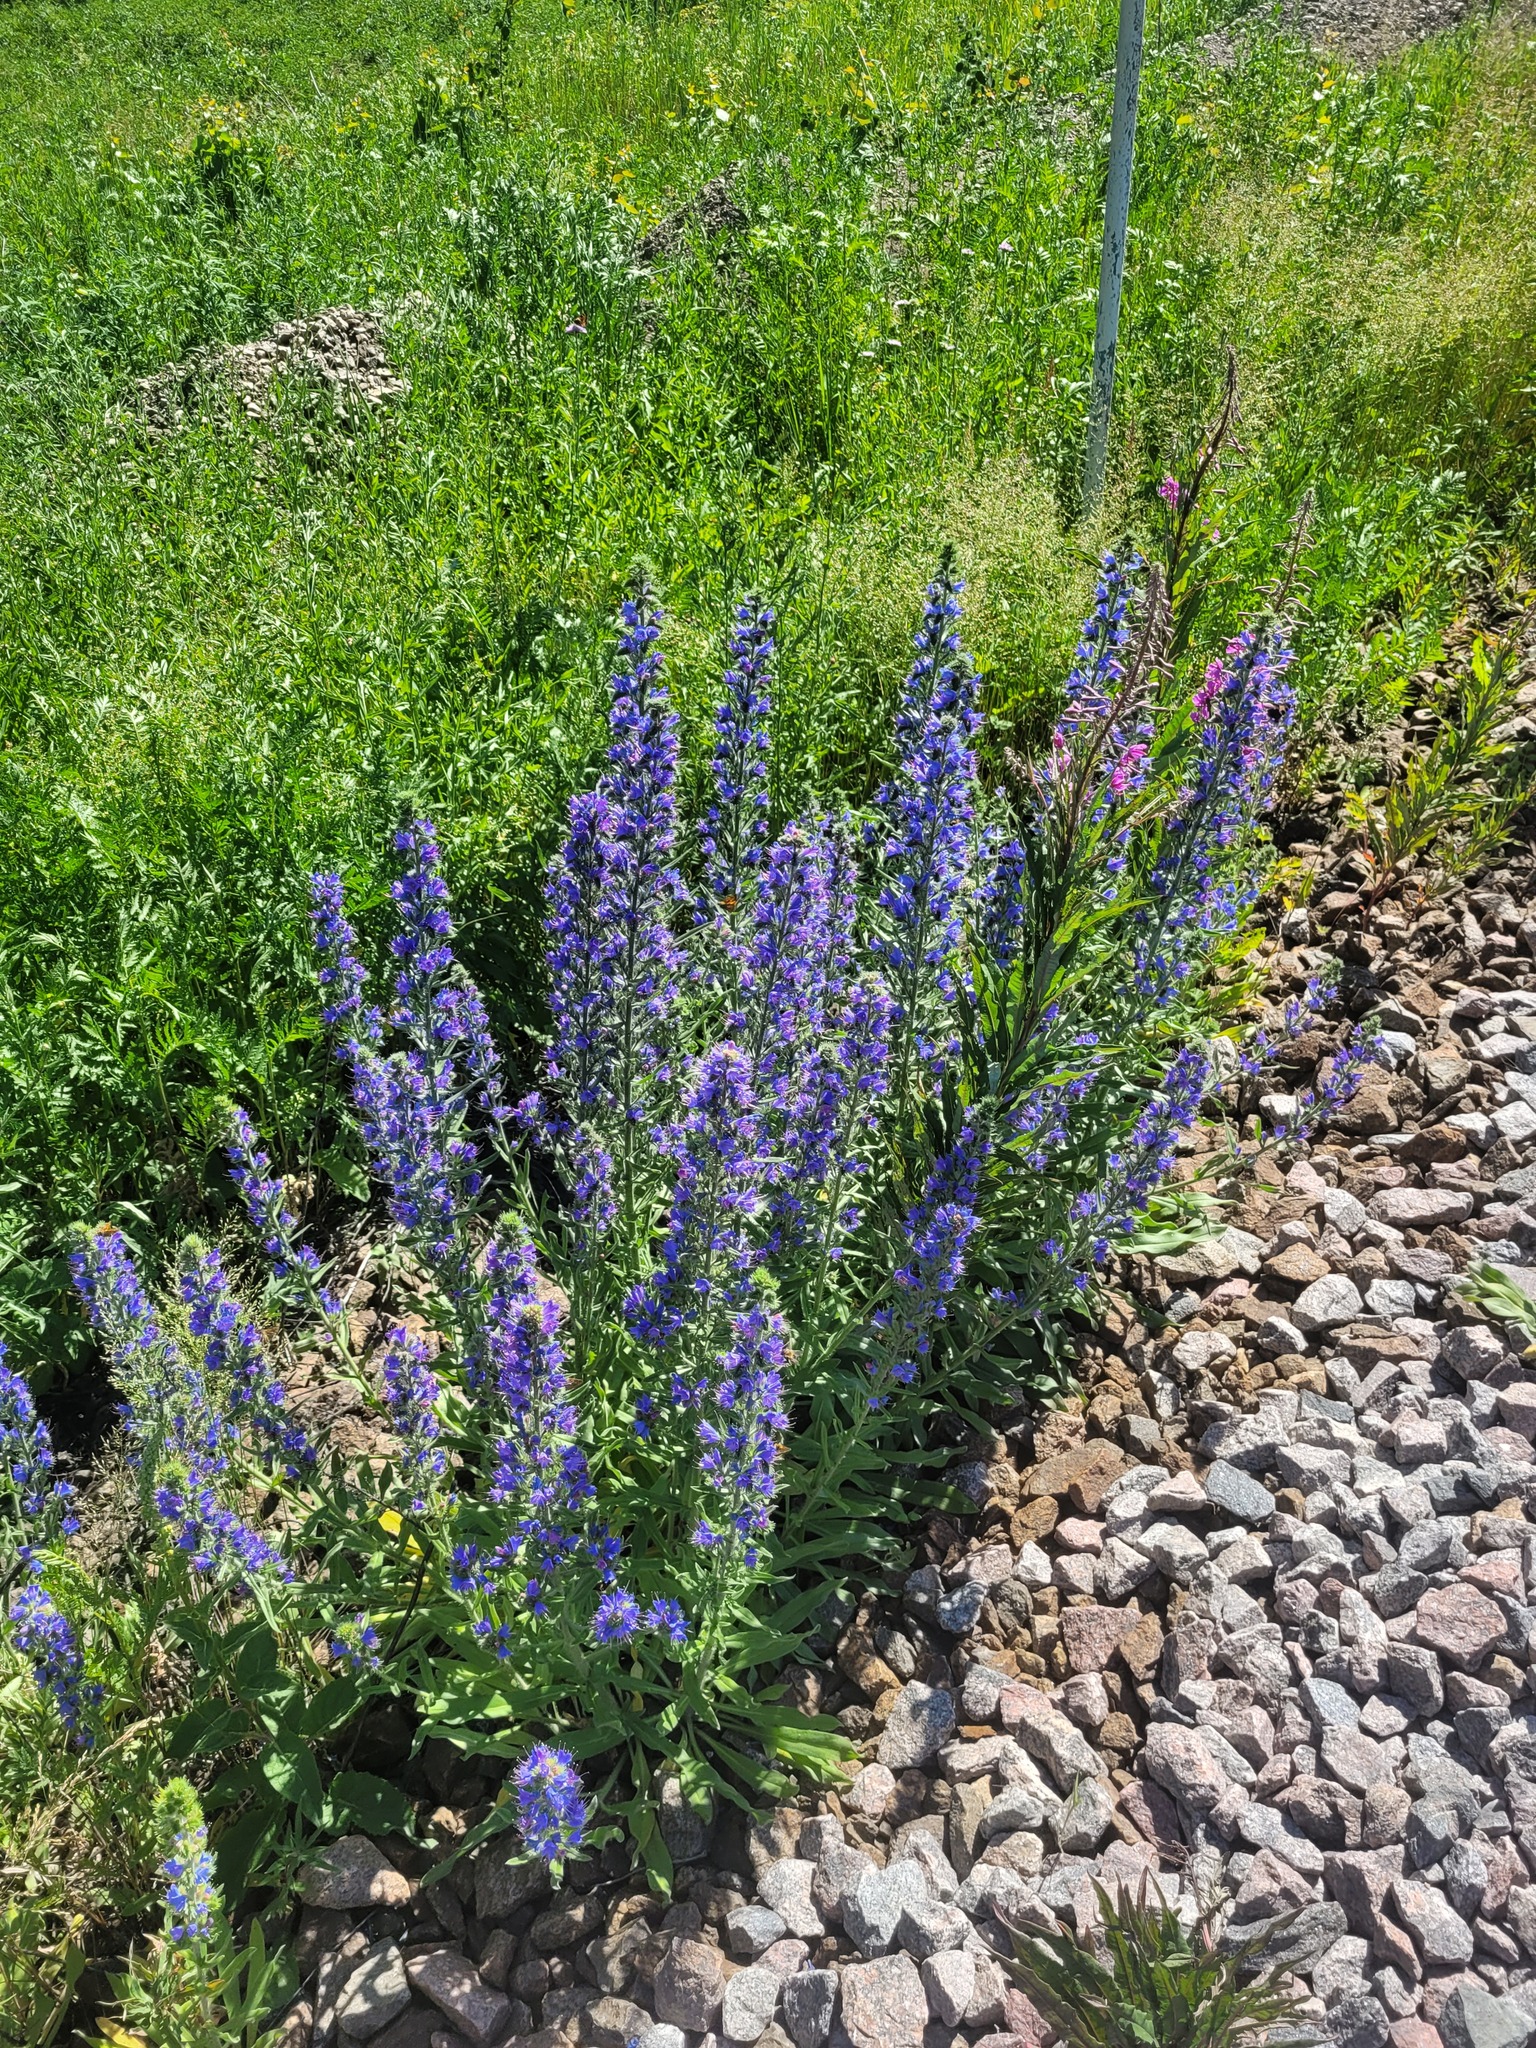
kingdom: Plantae
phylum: Tracheophyta
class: Magnoliopsida
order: Boraginales
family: Boraginaceae
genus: Echium
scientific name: Echium vulgare
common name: Common viper's bugloss
